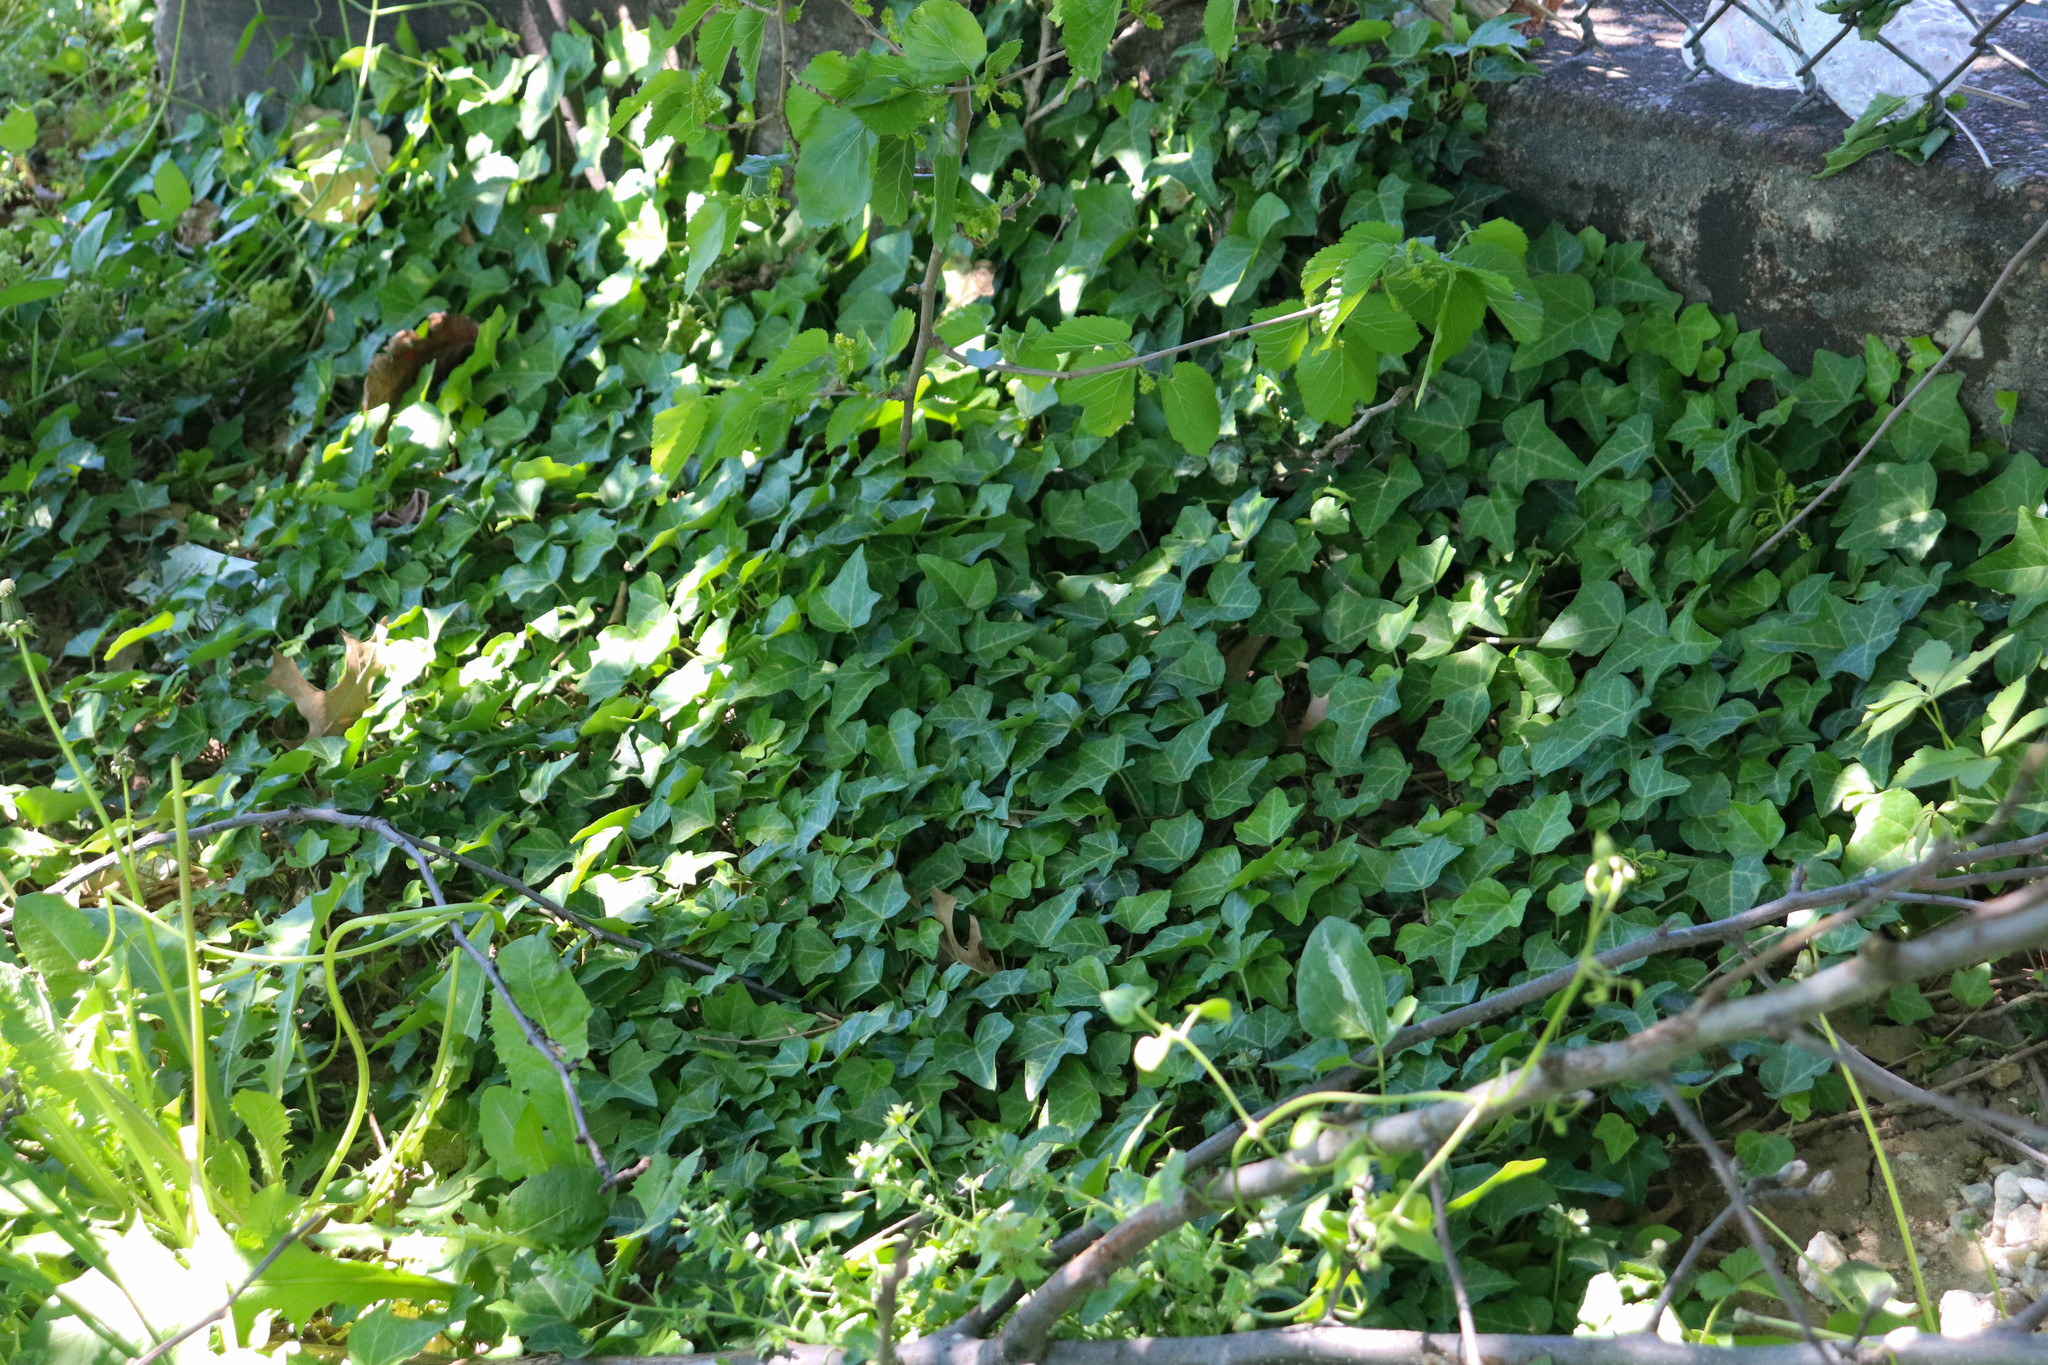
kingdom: Plantae
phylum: Tracheophyta
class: Magnoliopsida
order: Apiales
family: Araliaceae
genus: Hedera
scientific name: Hedera helix
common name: Ivy
